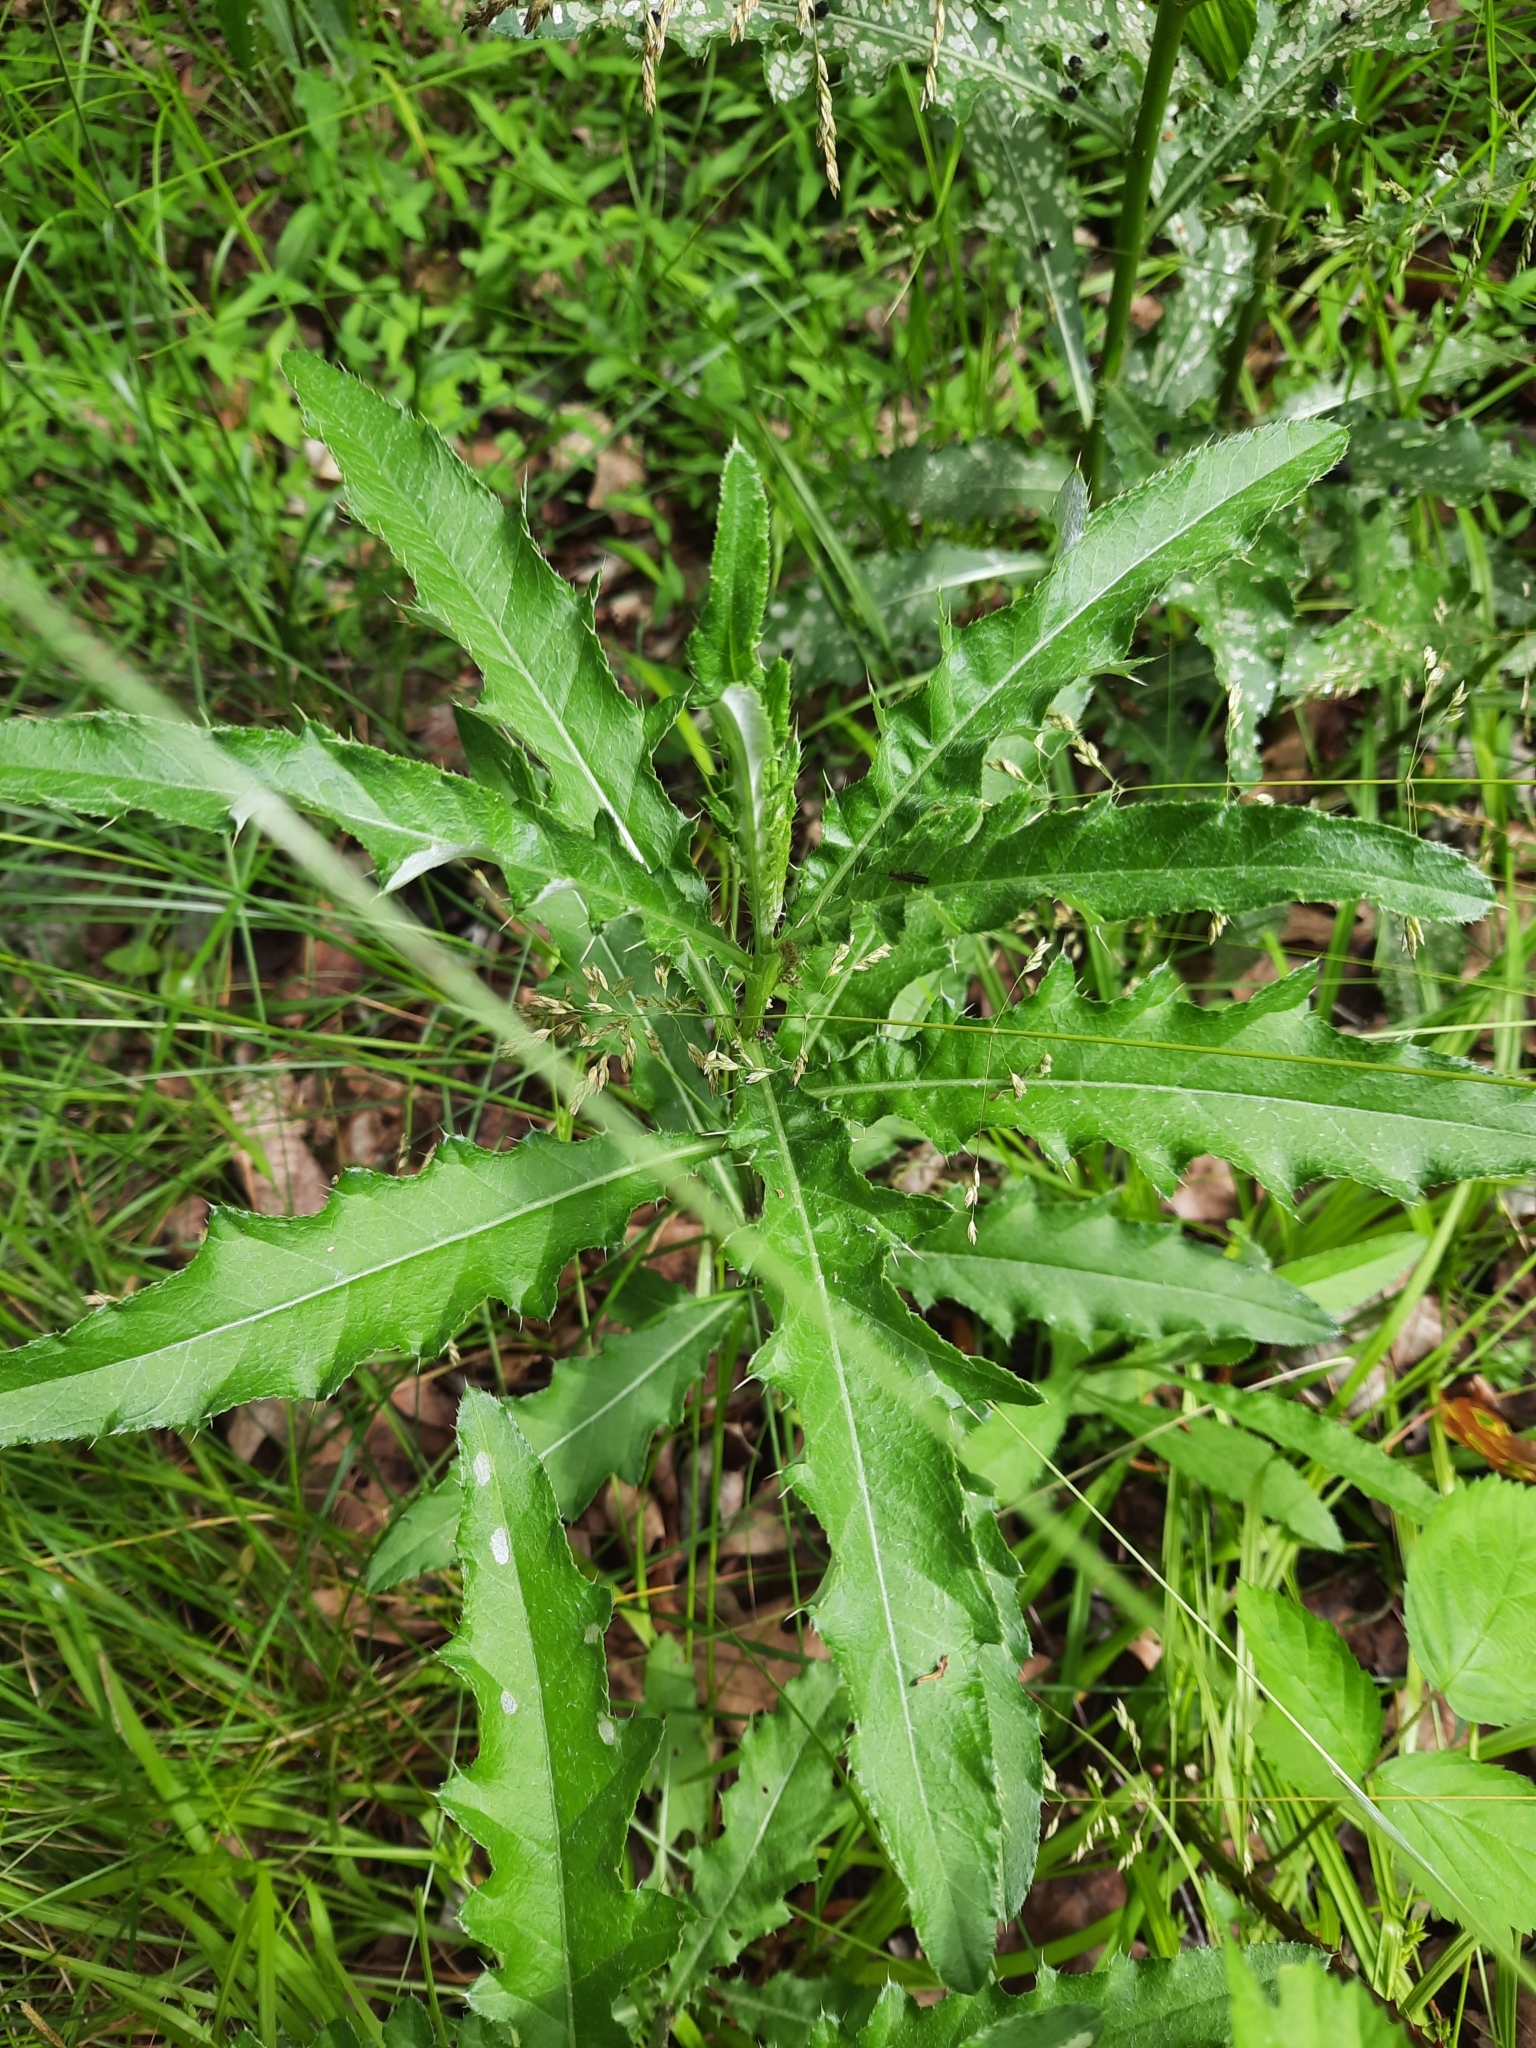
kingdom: Plantae
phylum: Tracheophyta
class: Magnoliopsida
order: Asterales
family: Asteraceae
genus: Cirsium
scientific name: Cirsium arvense
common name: Creeping thistle
